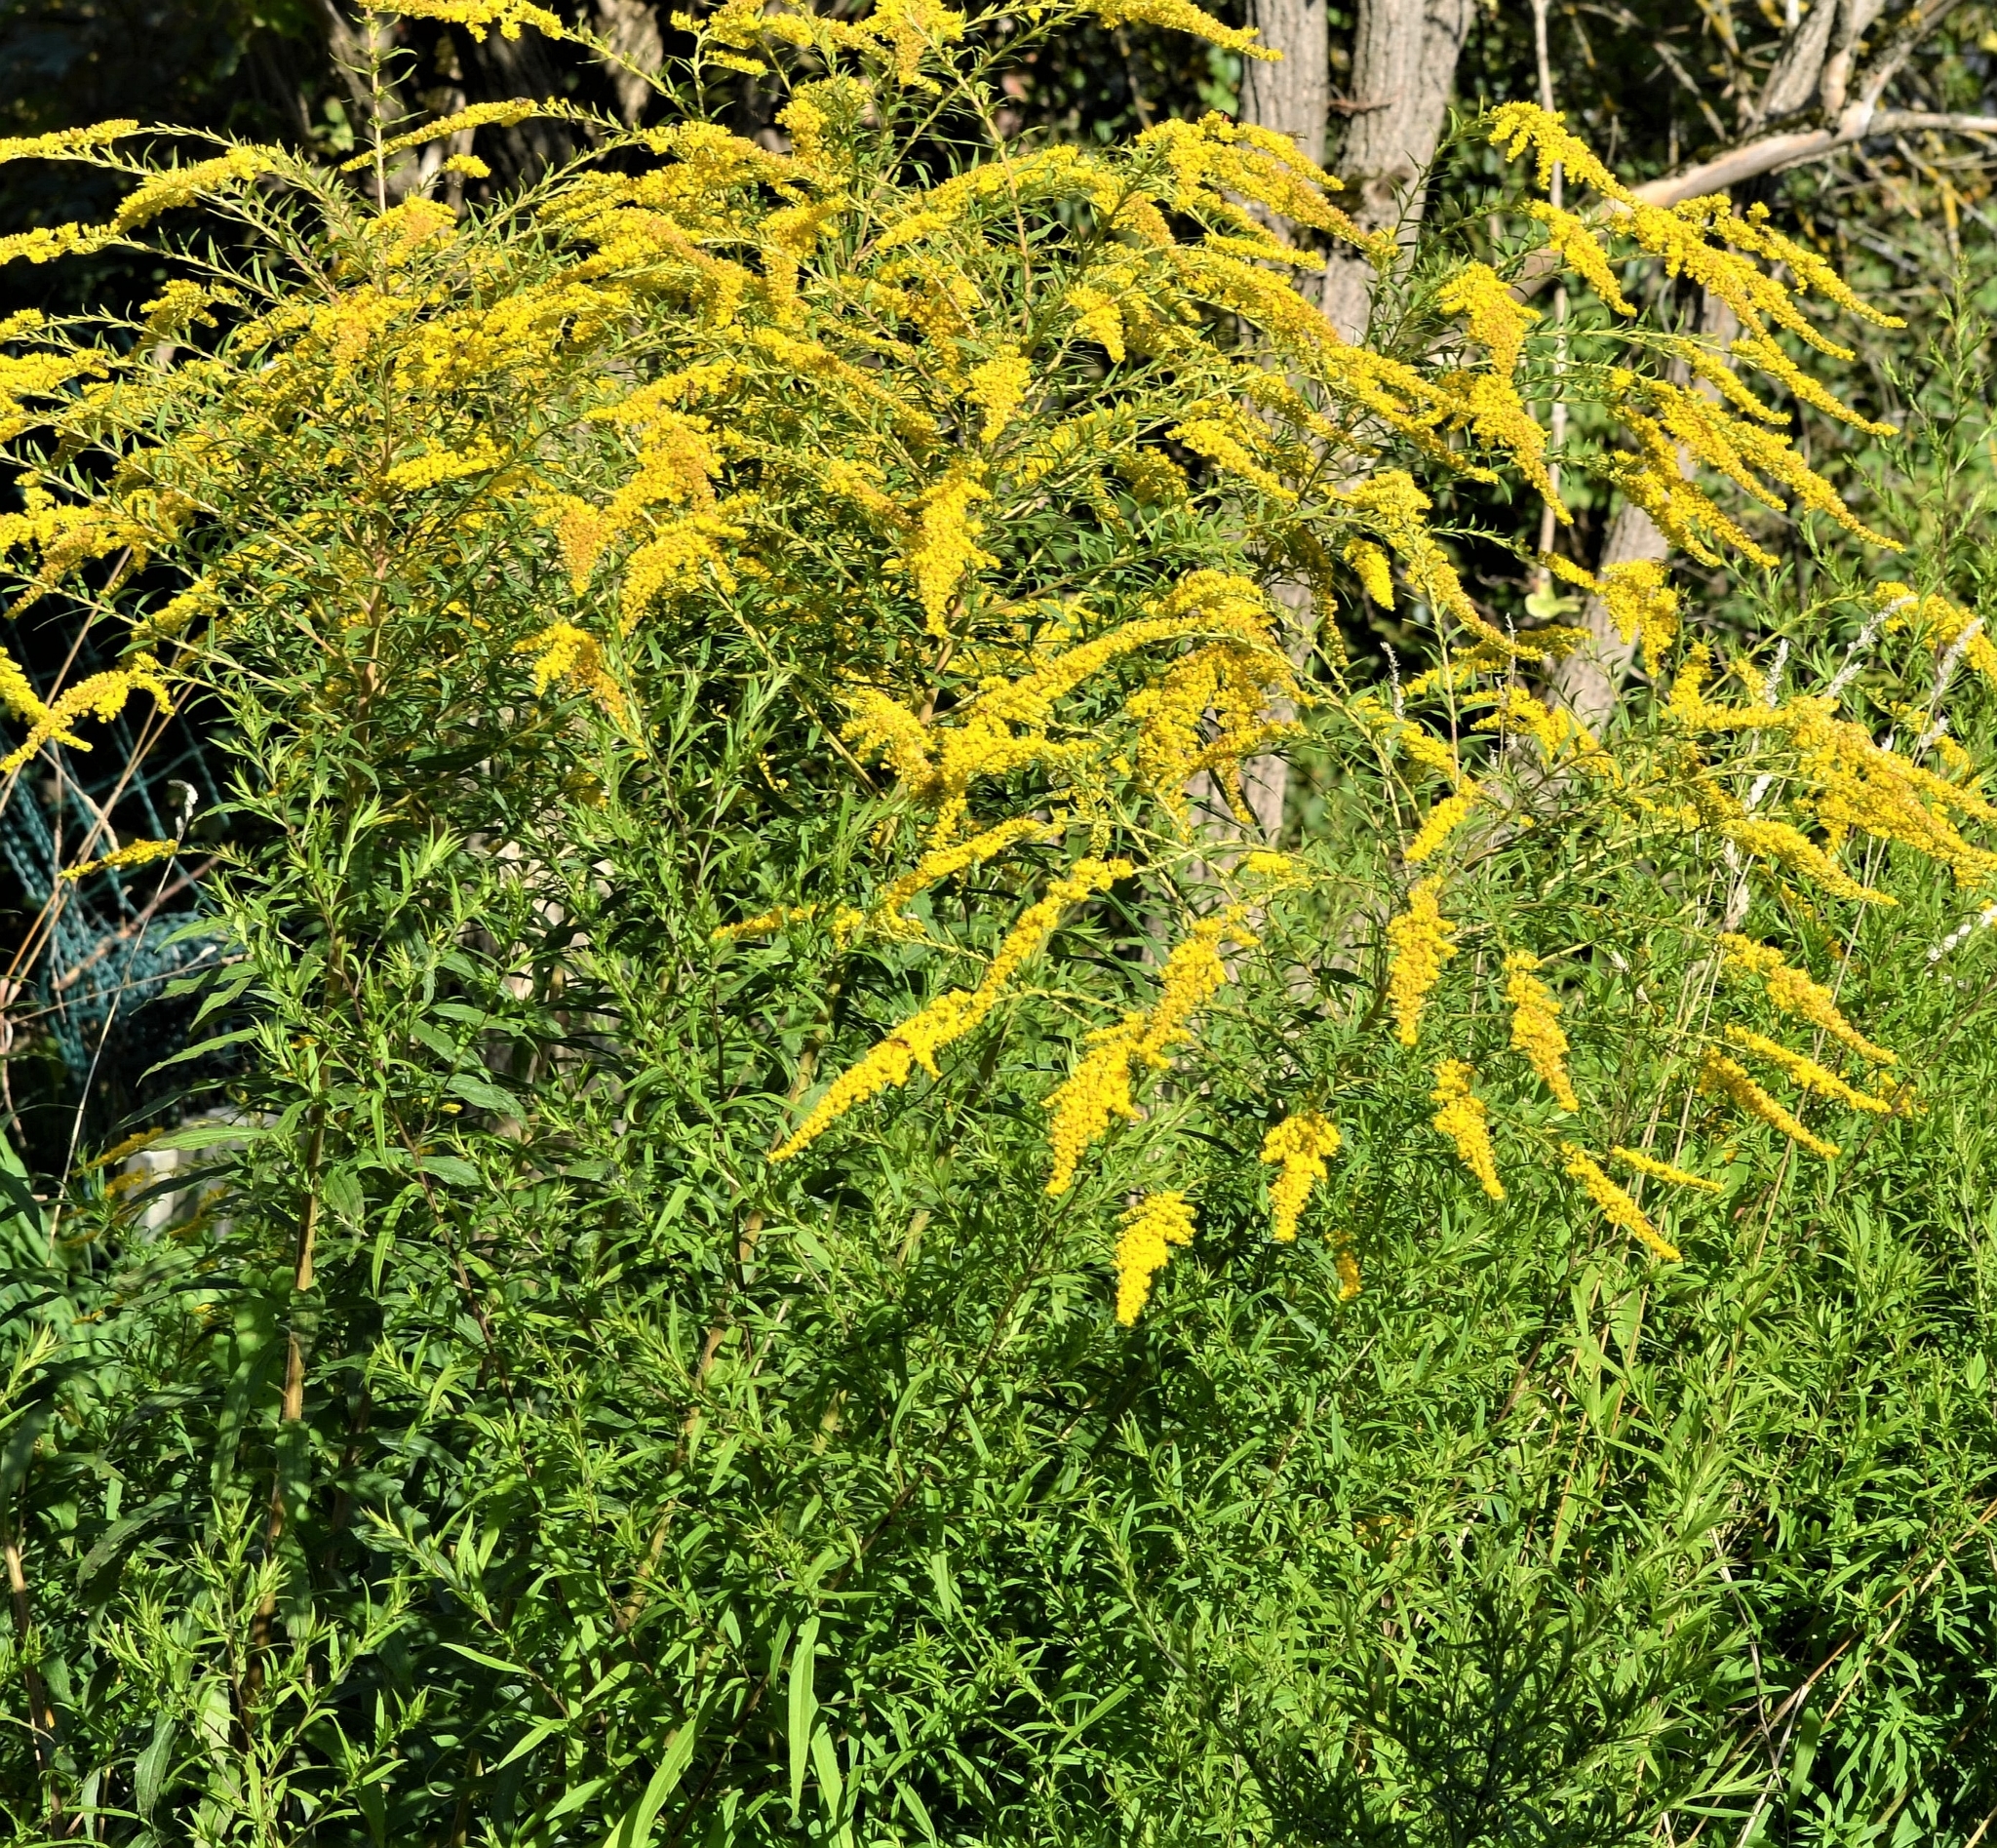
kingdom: Plantae
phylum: Tracheophyta
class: Magnoliopsida
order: Asterales
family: Asteraceae
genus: Solidago
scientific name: Solidago canadensis
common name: Canada goldenrod
